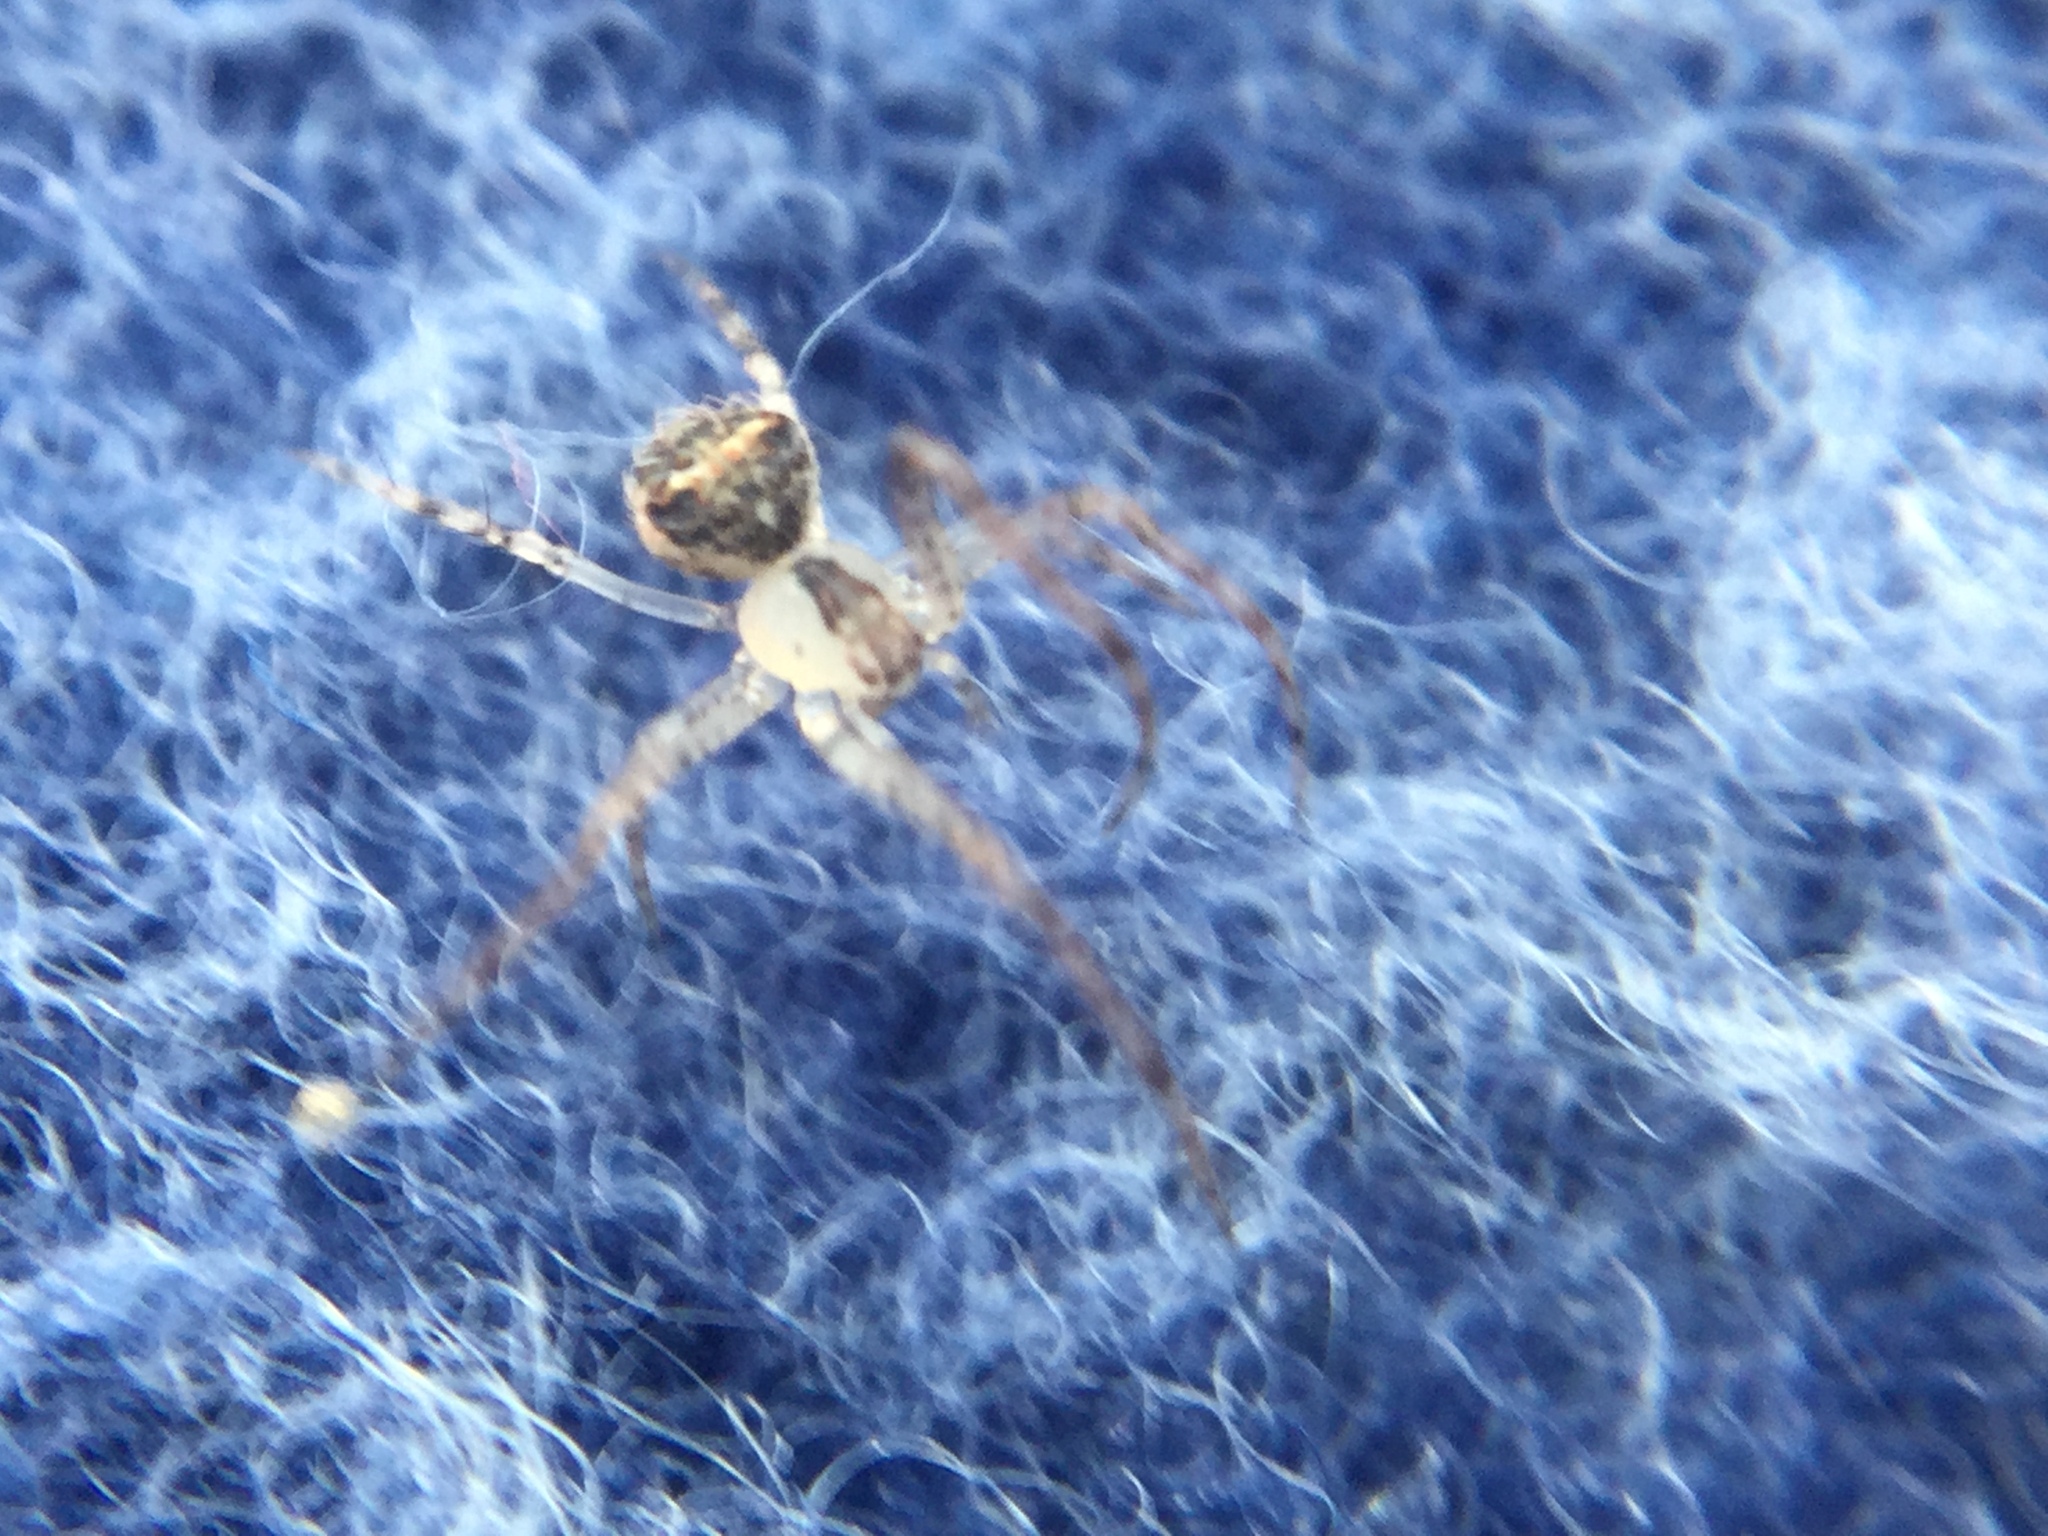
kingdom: Animalia
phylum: Arthropoda
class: Arachnida
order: Araneae
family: Mimetidae
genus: Mimetus
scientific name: Mimetus puritanus
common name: Common pirate spider
